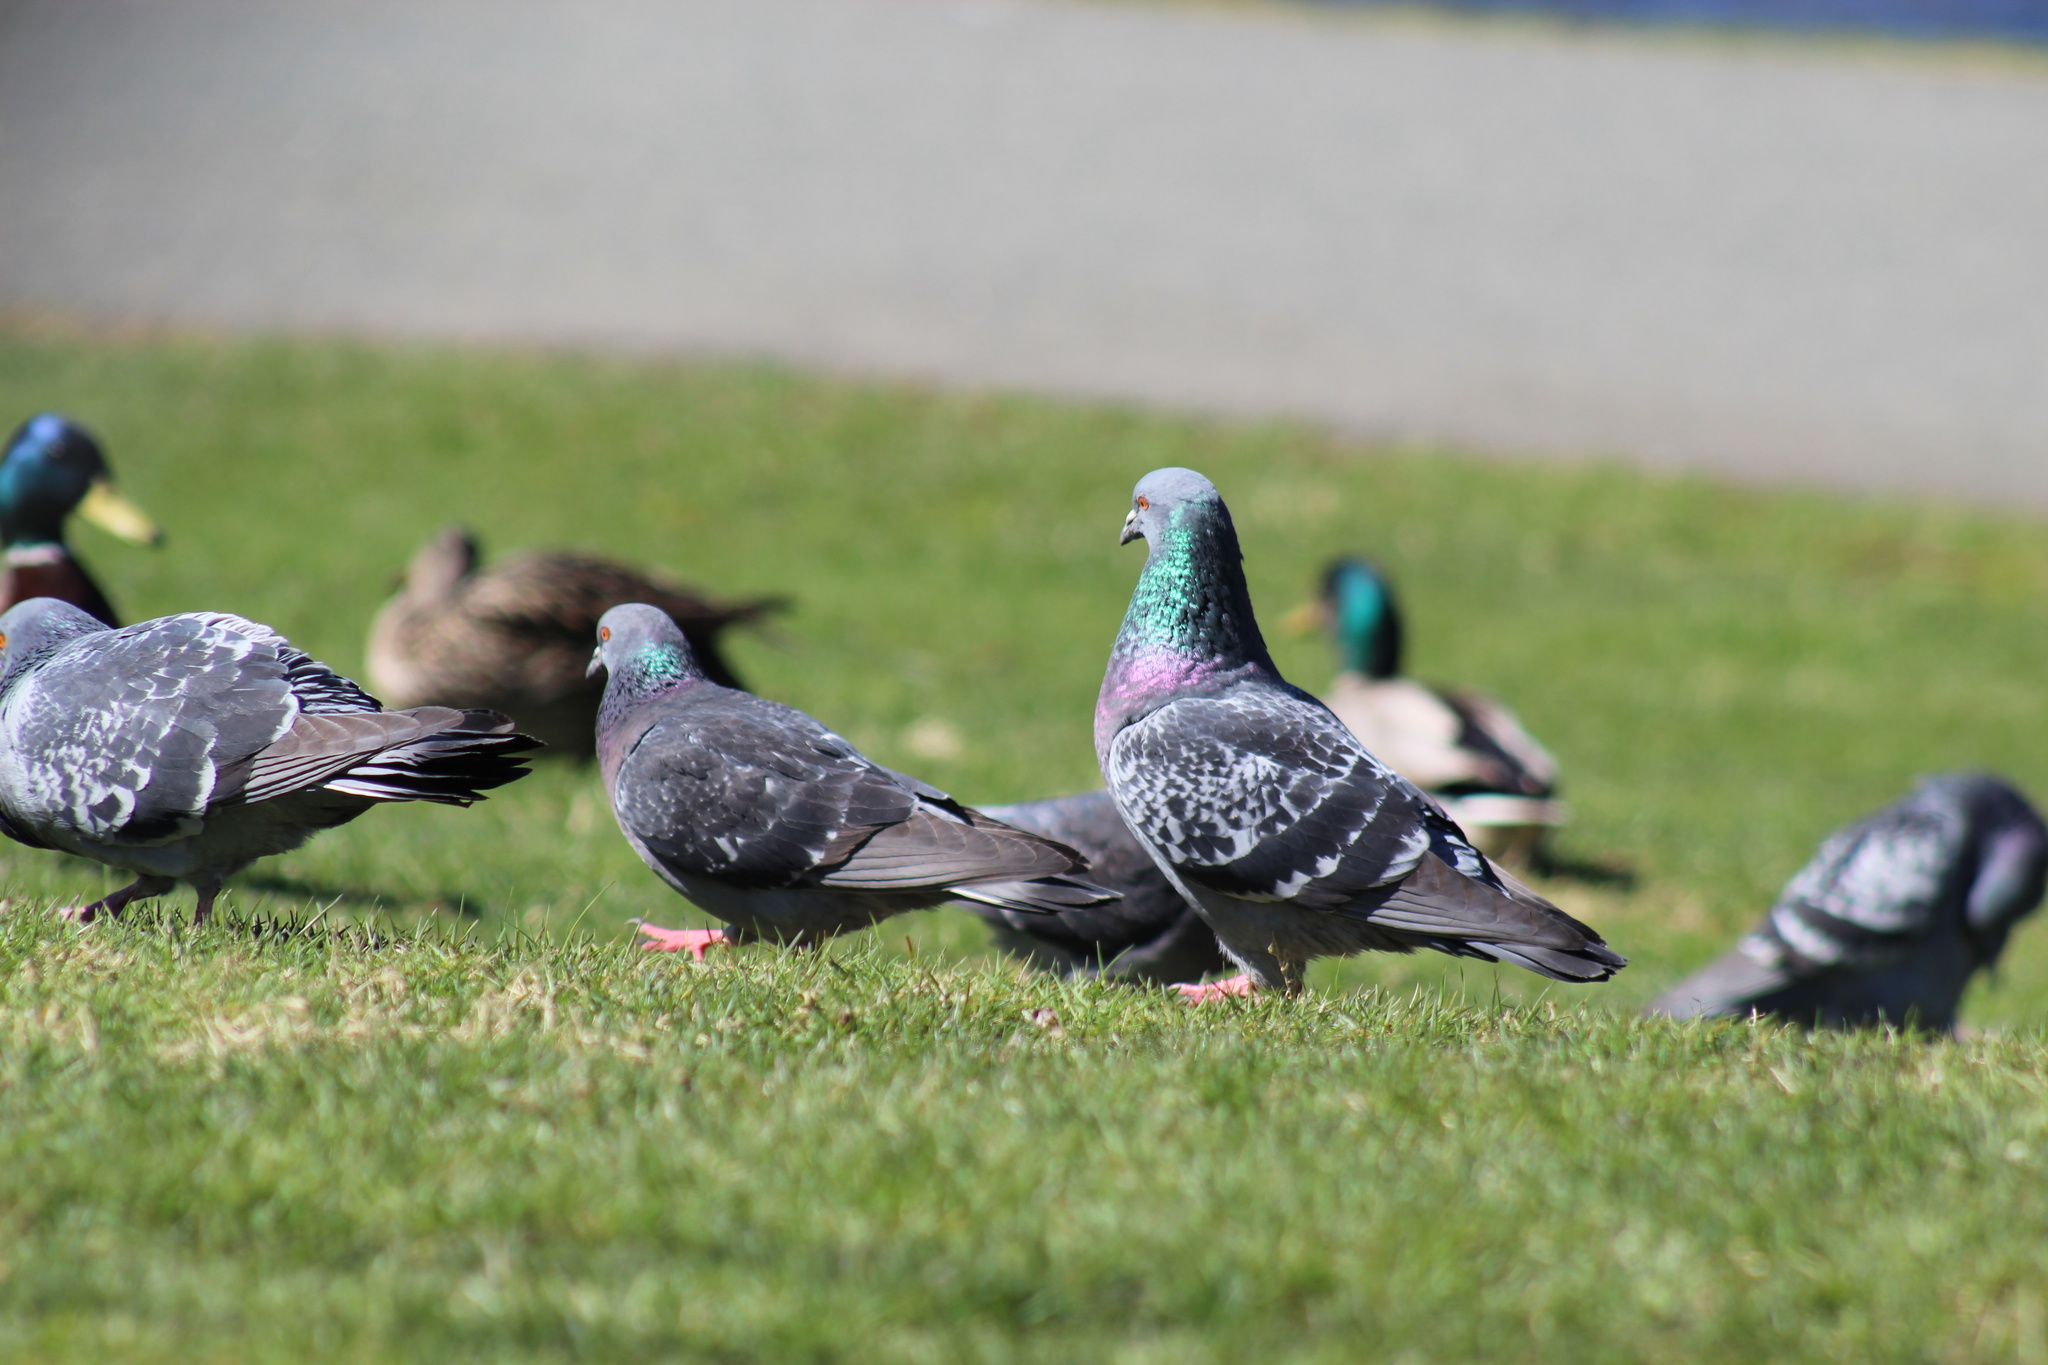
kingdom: Animalia
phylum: Chordata
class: Aves
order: Columbiformes
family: Columbidae
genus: Columba
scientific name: Columba livia
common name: Rock pigeon
